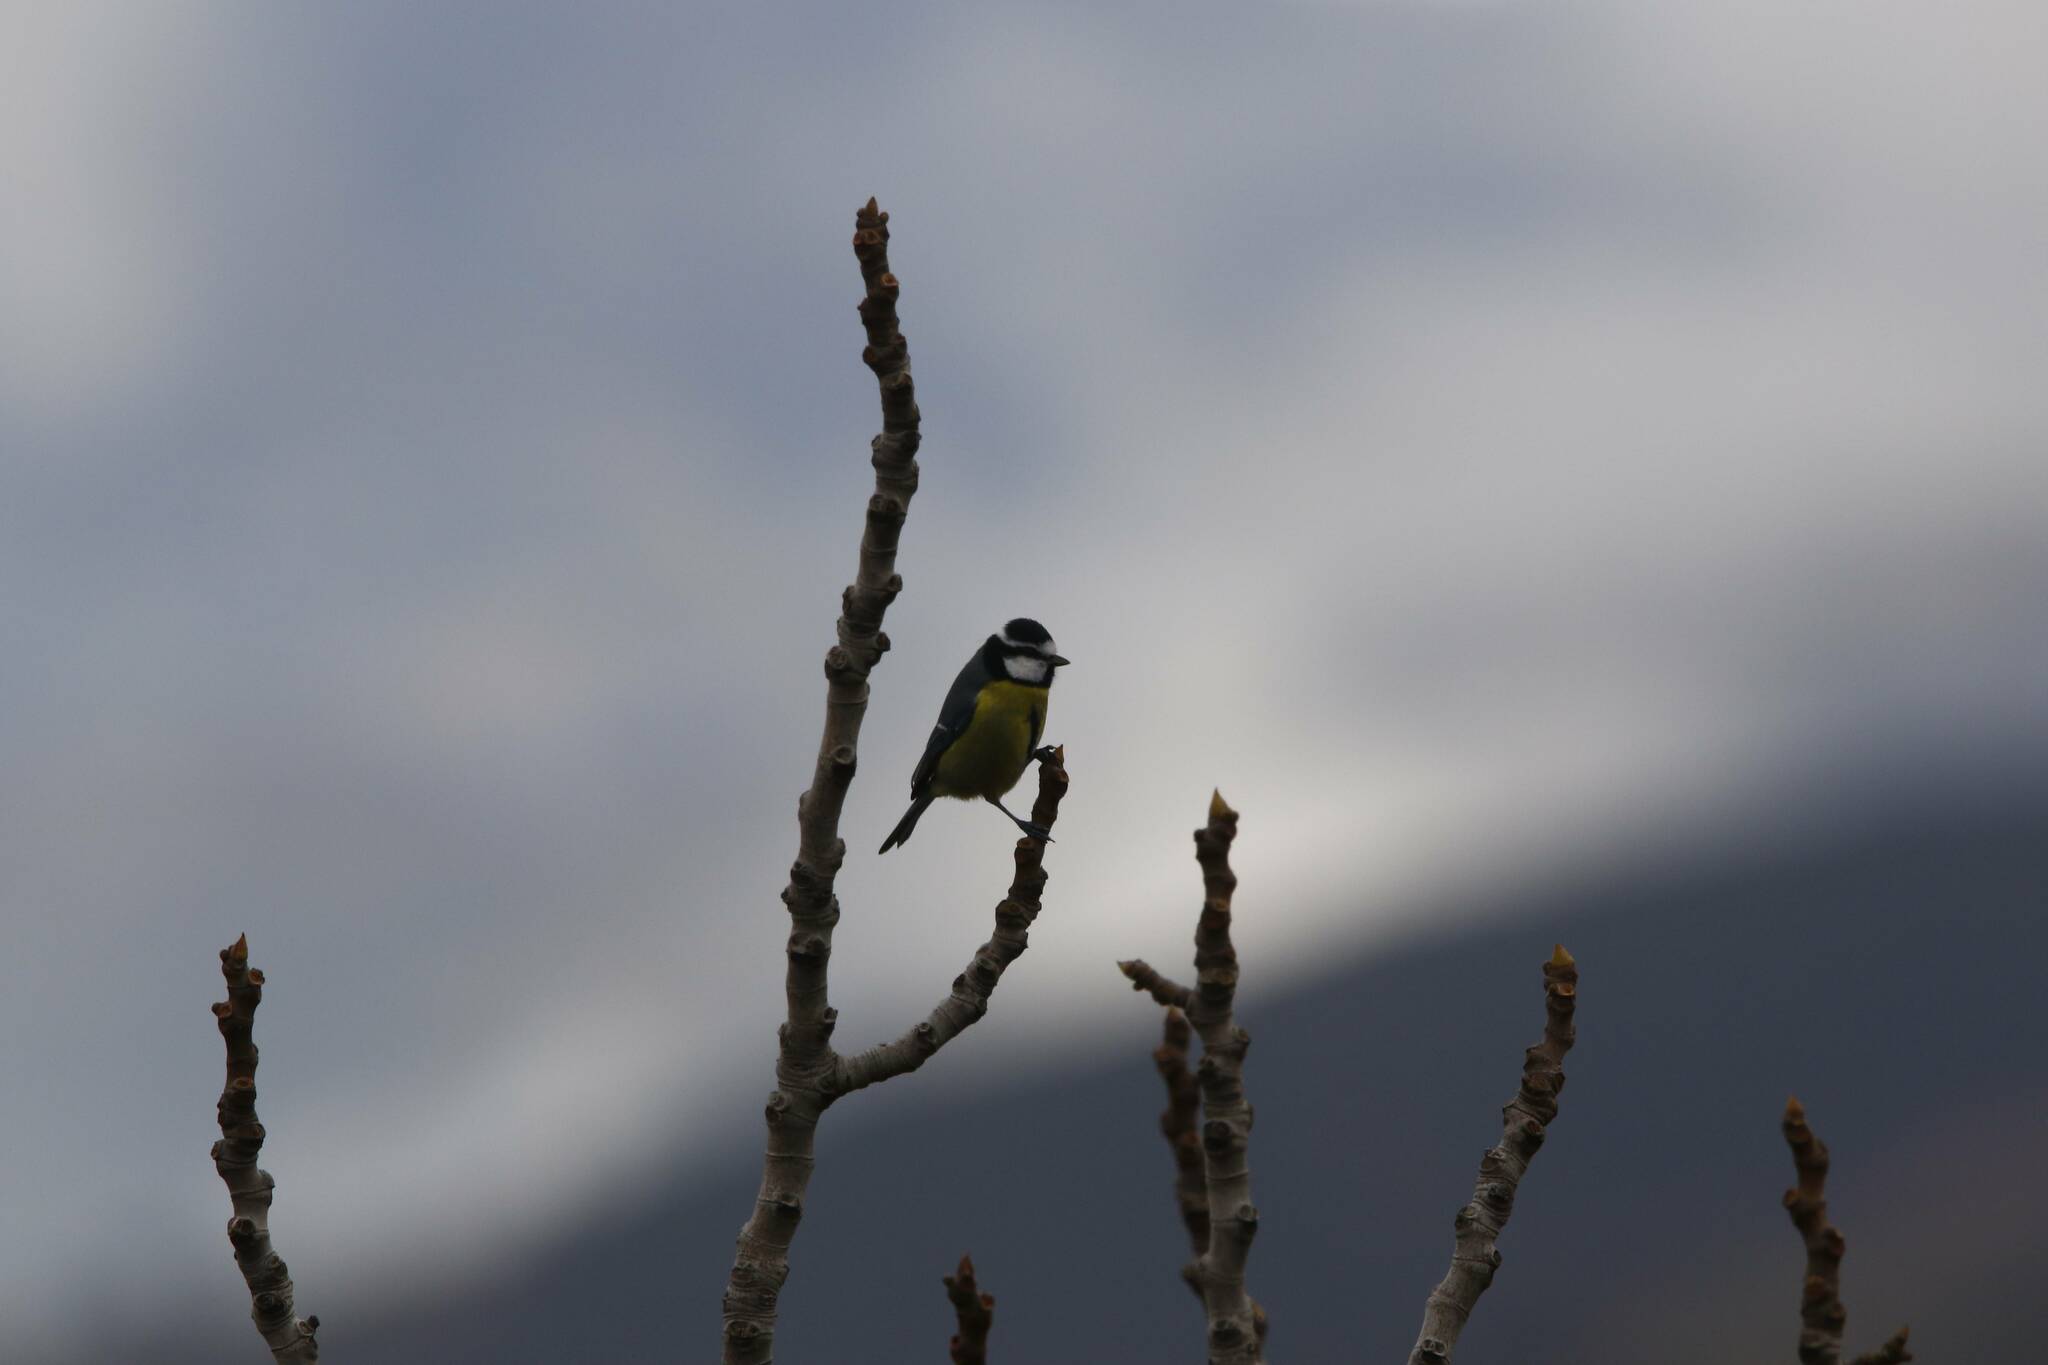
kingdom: Animalia
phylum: Chordata
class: Aves
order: Passeriformes
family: Paridae
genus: Cyanistes
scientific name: Cyanistes teneriffae
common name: African blue tit
